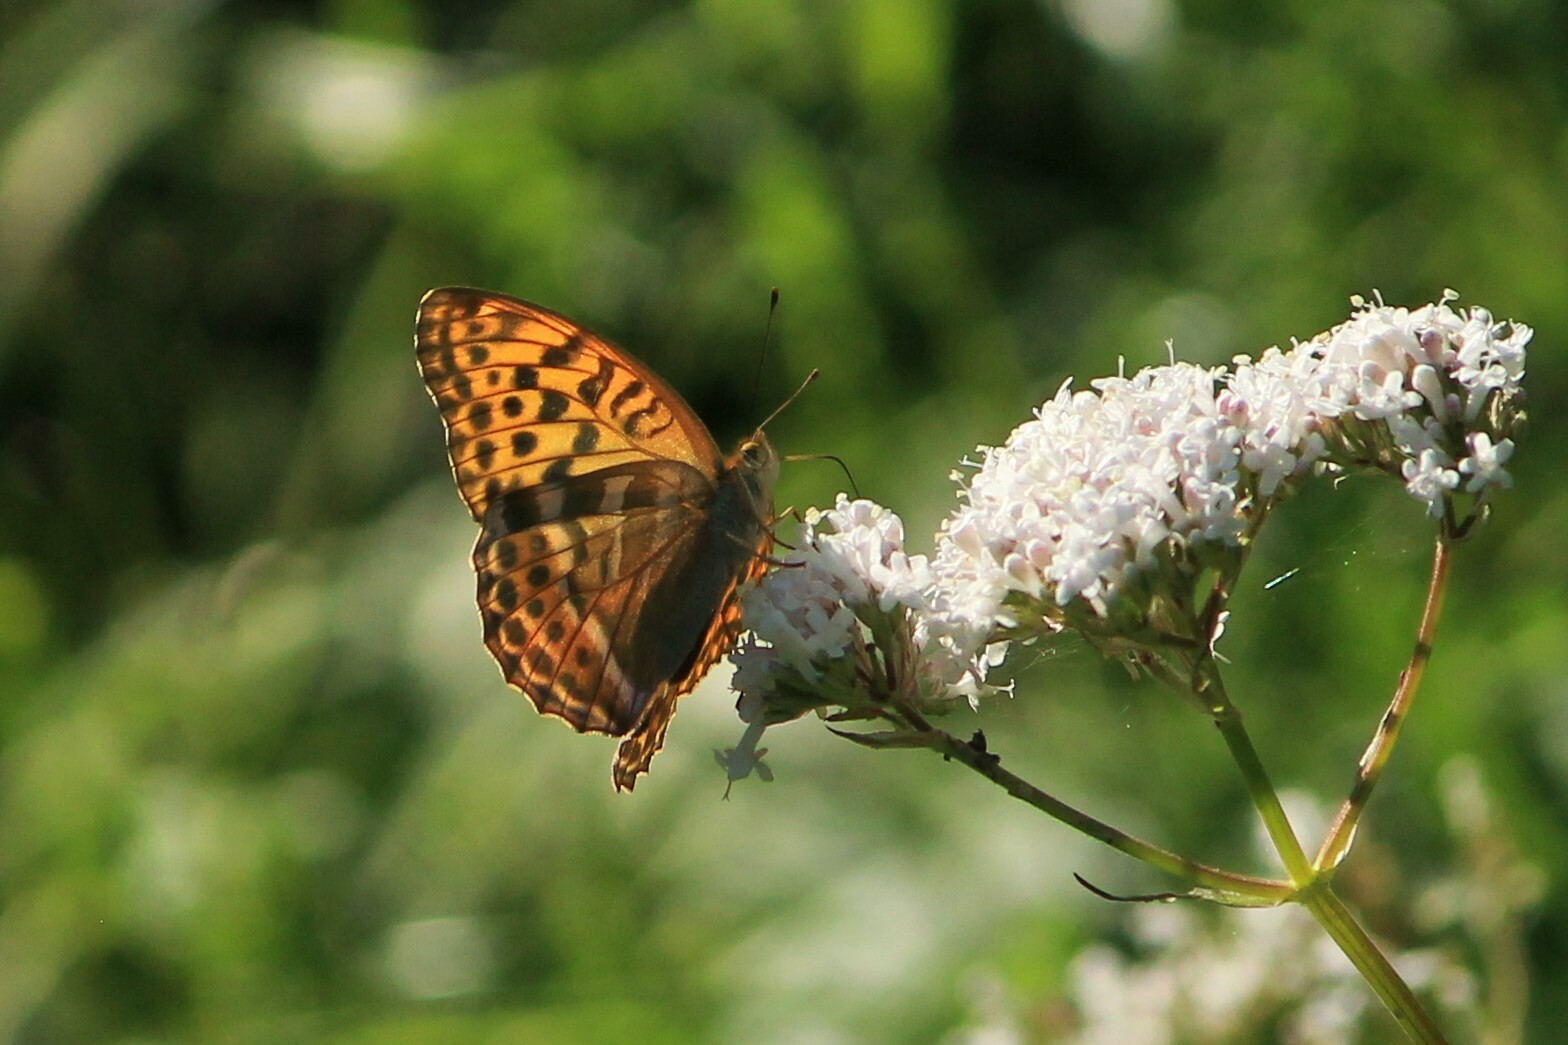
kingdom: Animalia
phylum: Arthropoda
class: Insecta
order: Lepidoptera
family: Nymphalidae
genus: Argynnis
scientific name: Argynnis paphia
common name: Silver-washed fritillary
